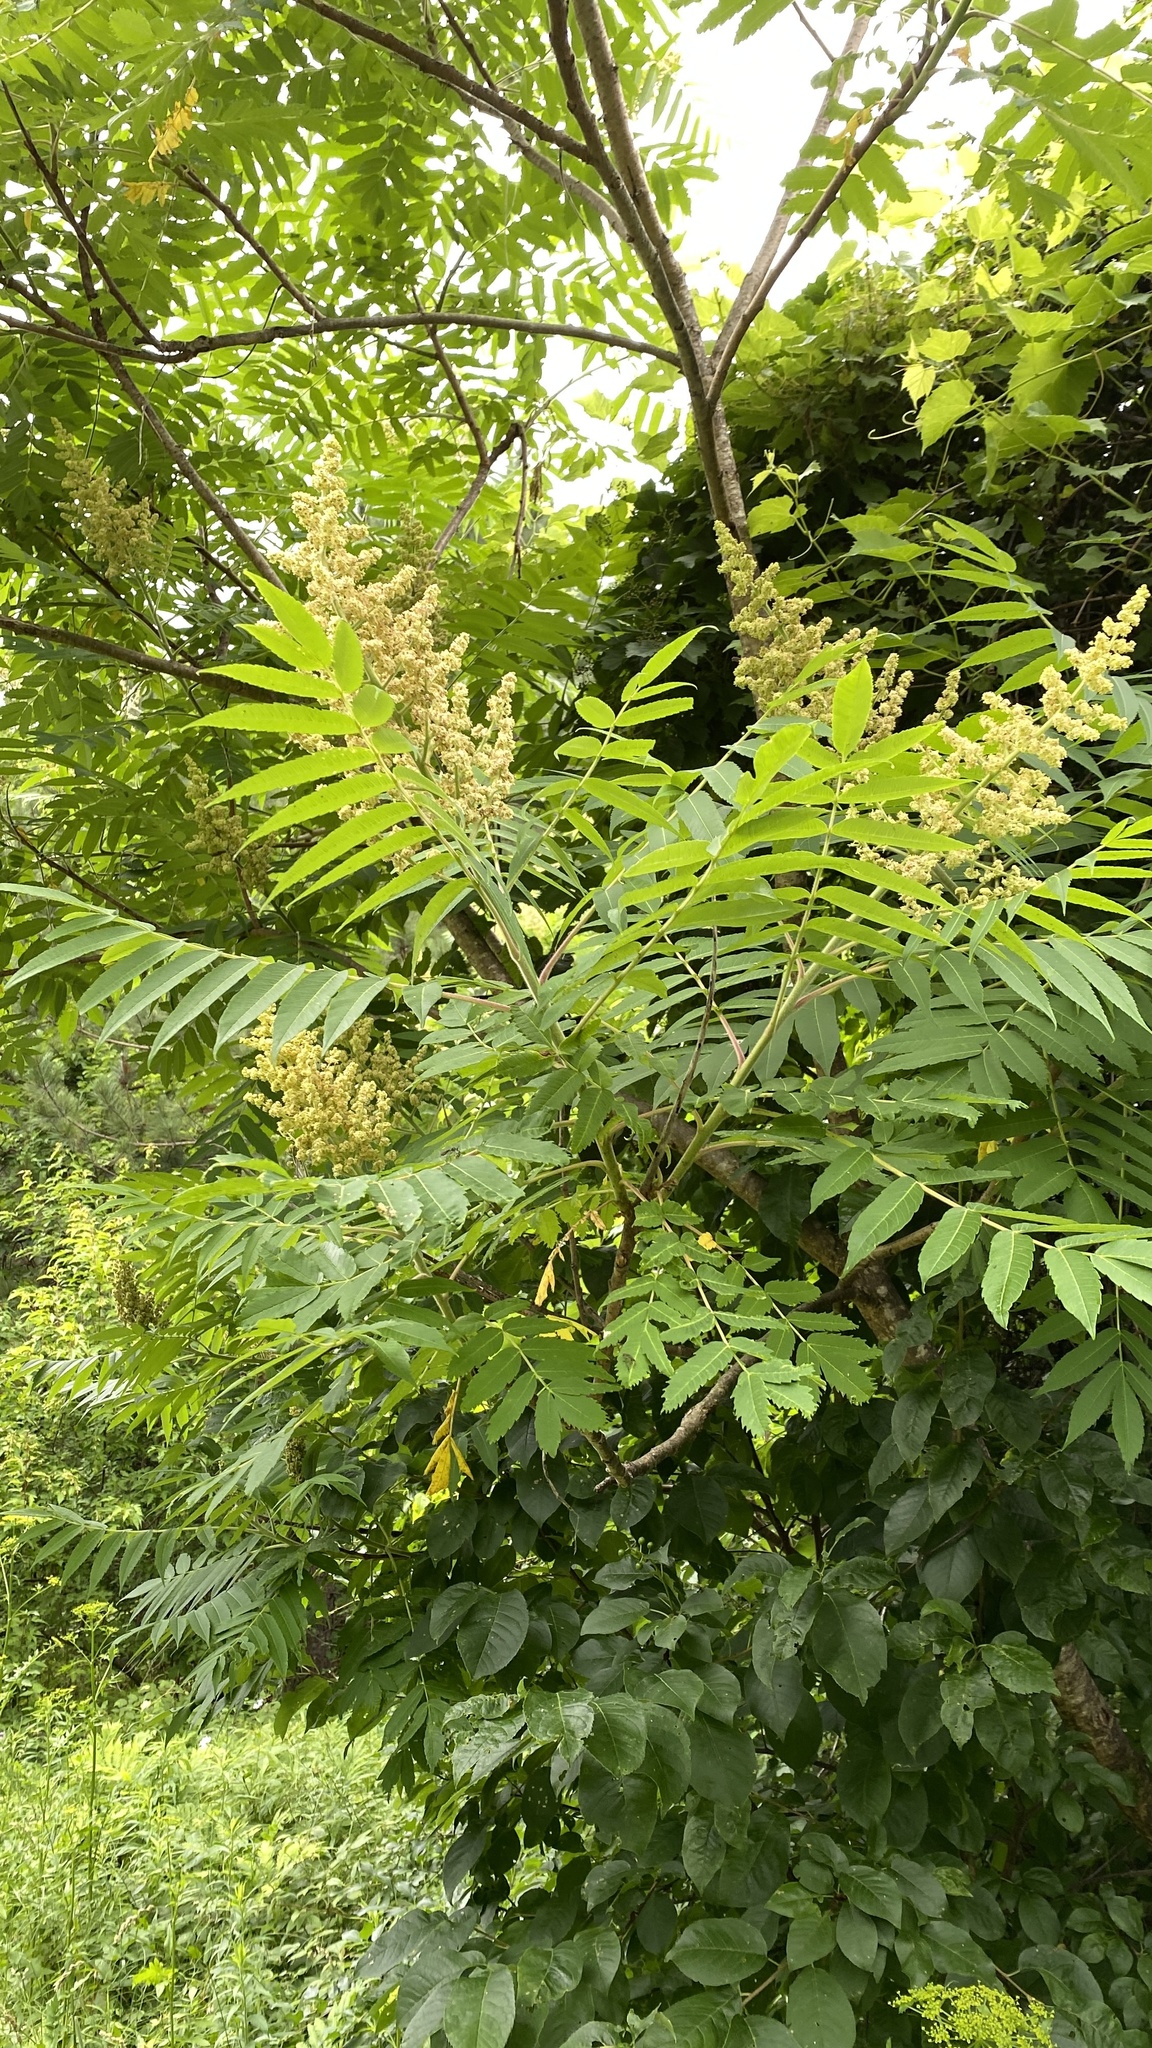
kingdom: Plantae
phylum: Tracheophyta
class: Magnoliopsida
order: Sapindales
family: Anacardiaceae
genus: Rhus
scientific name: Rhus typhina
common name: Staghorn sumac
